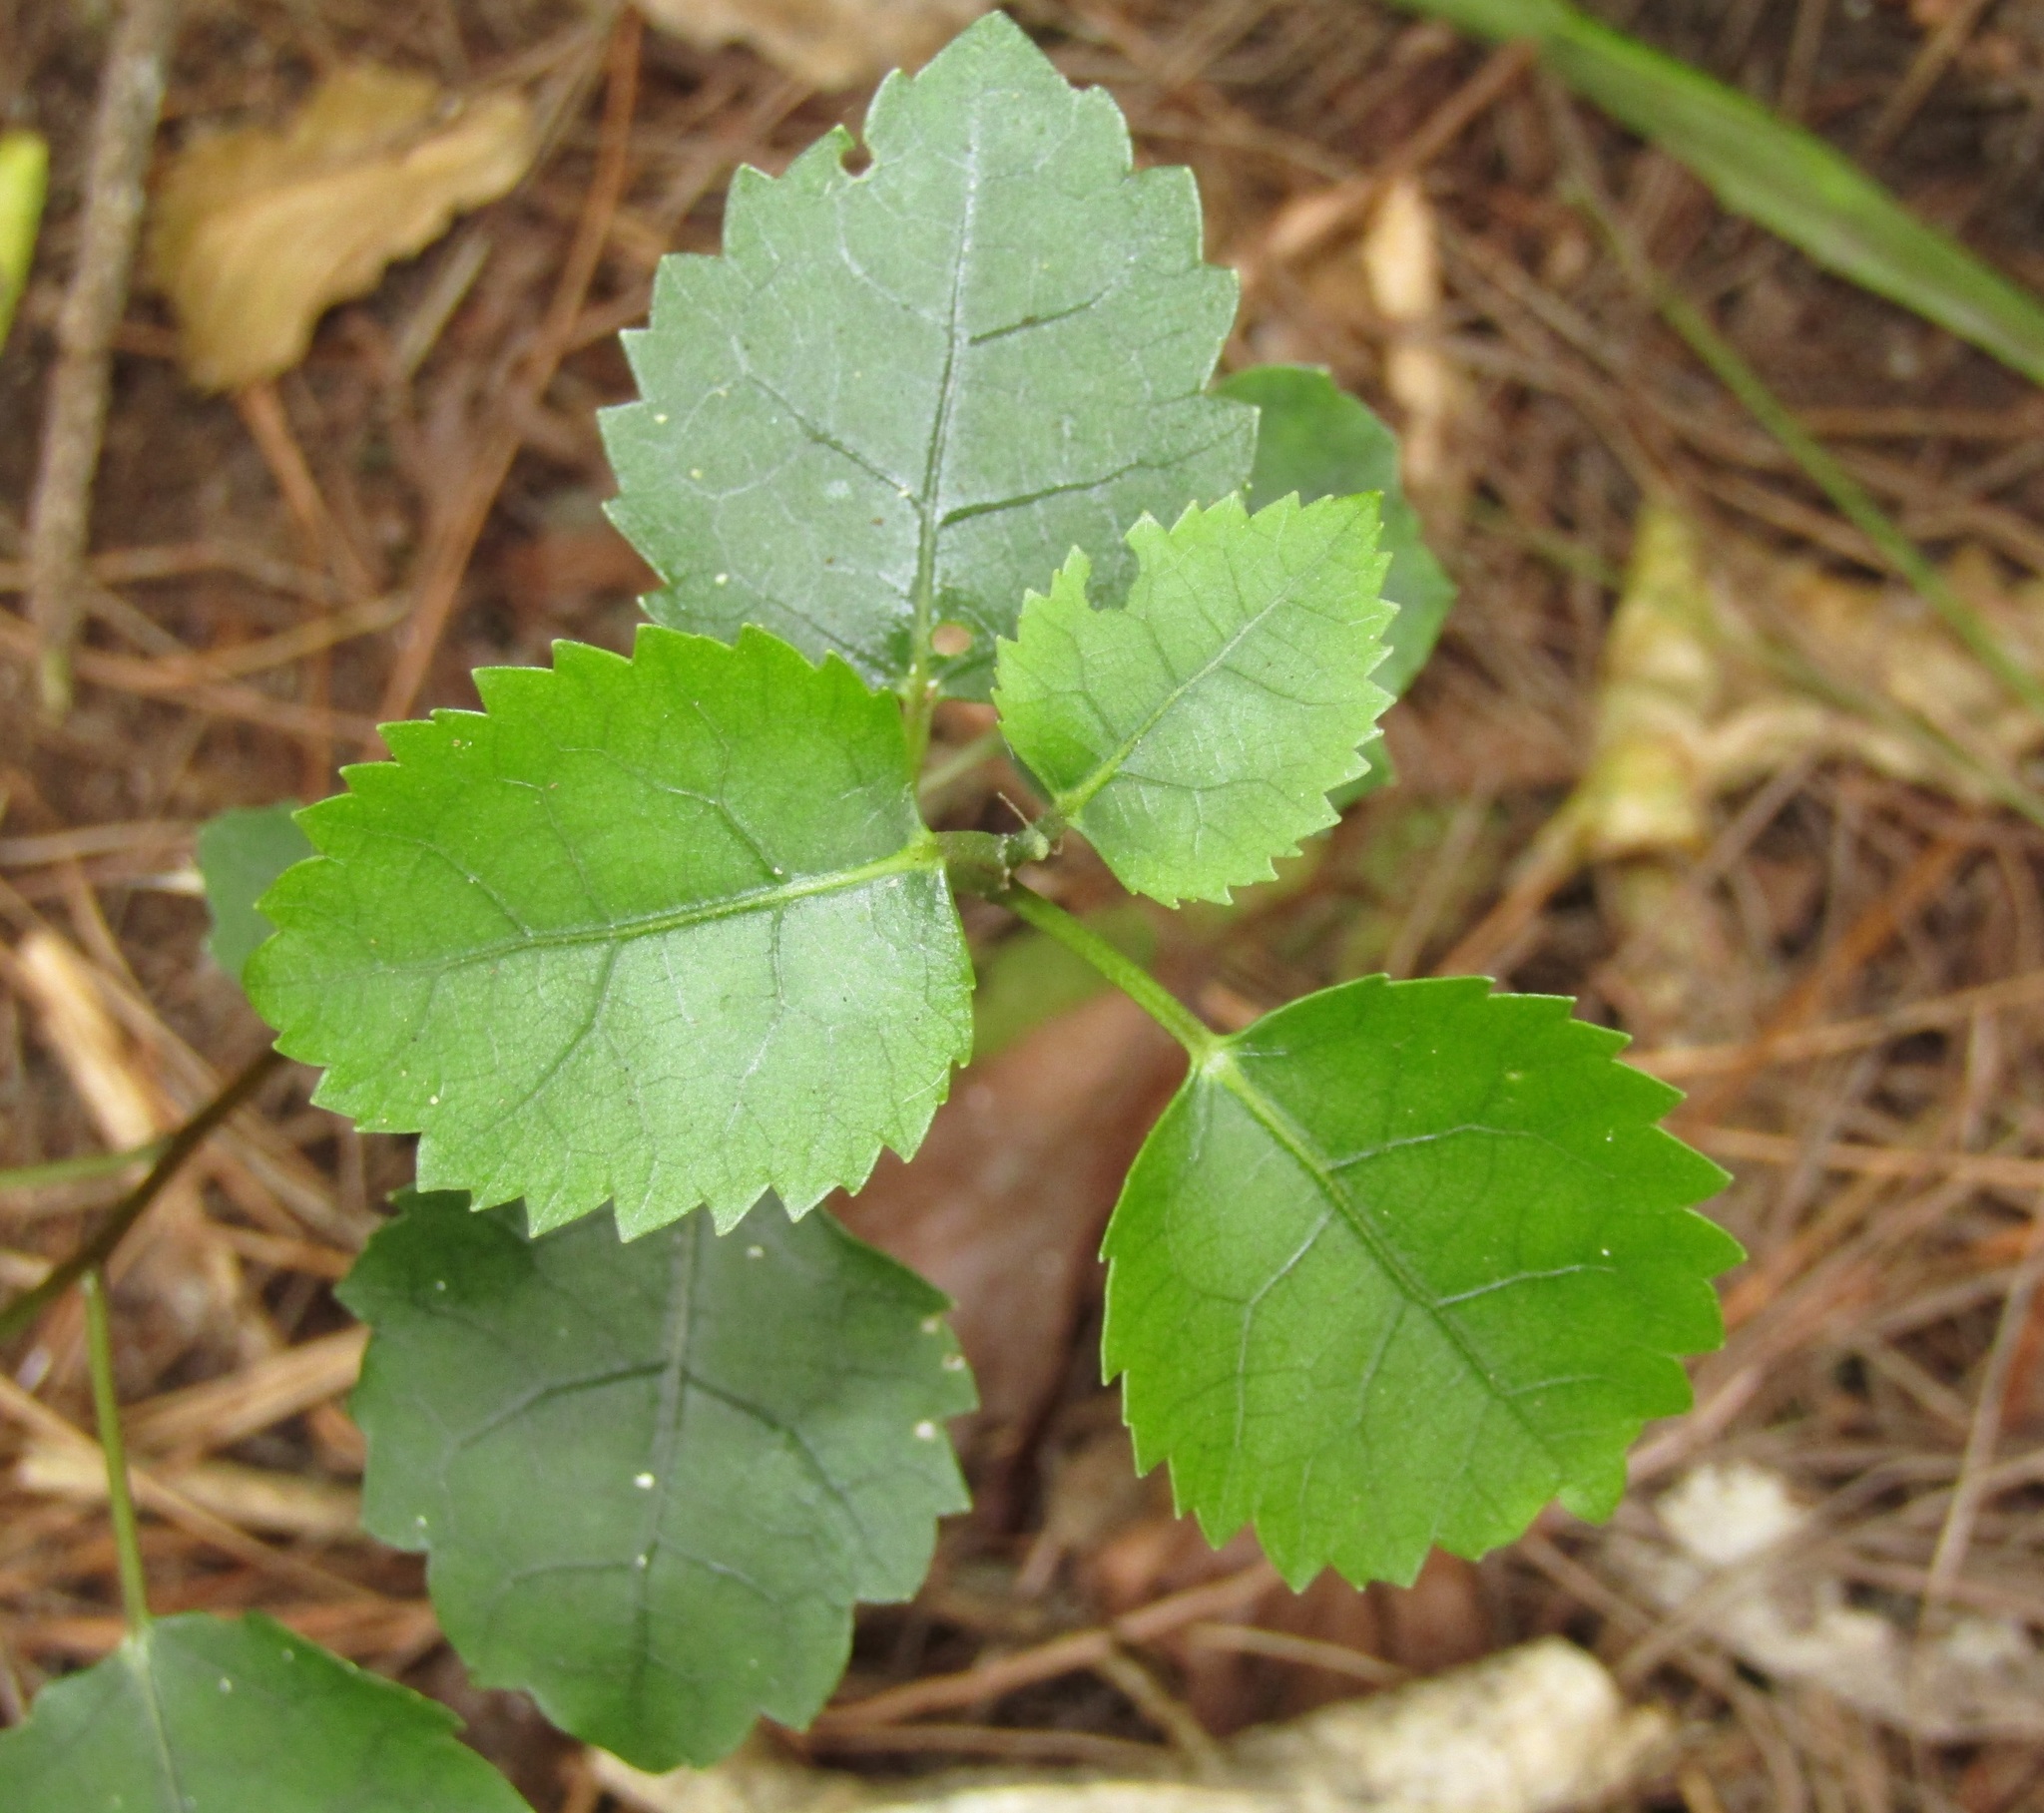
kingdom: Plantae
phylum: Tracheophyta
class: Magnoliopsida
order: Malvales
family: Malvaceae
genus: Hoheria
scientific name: Hoheria populnea
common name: Lacebark
